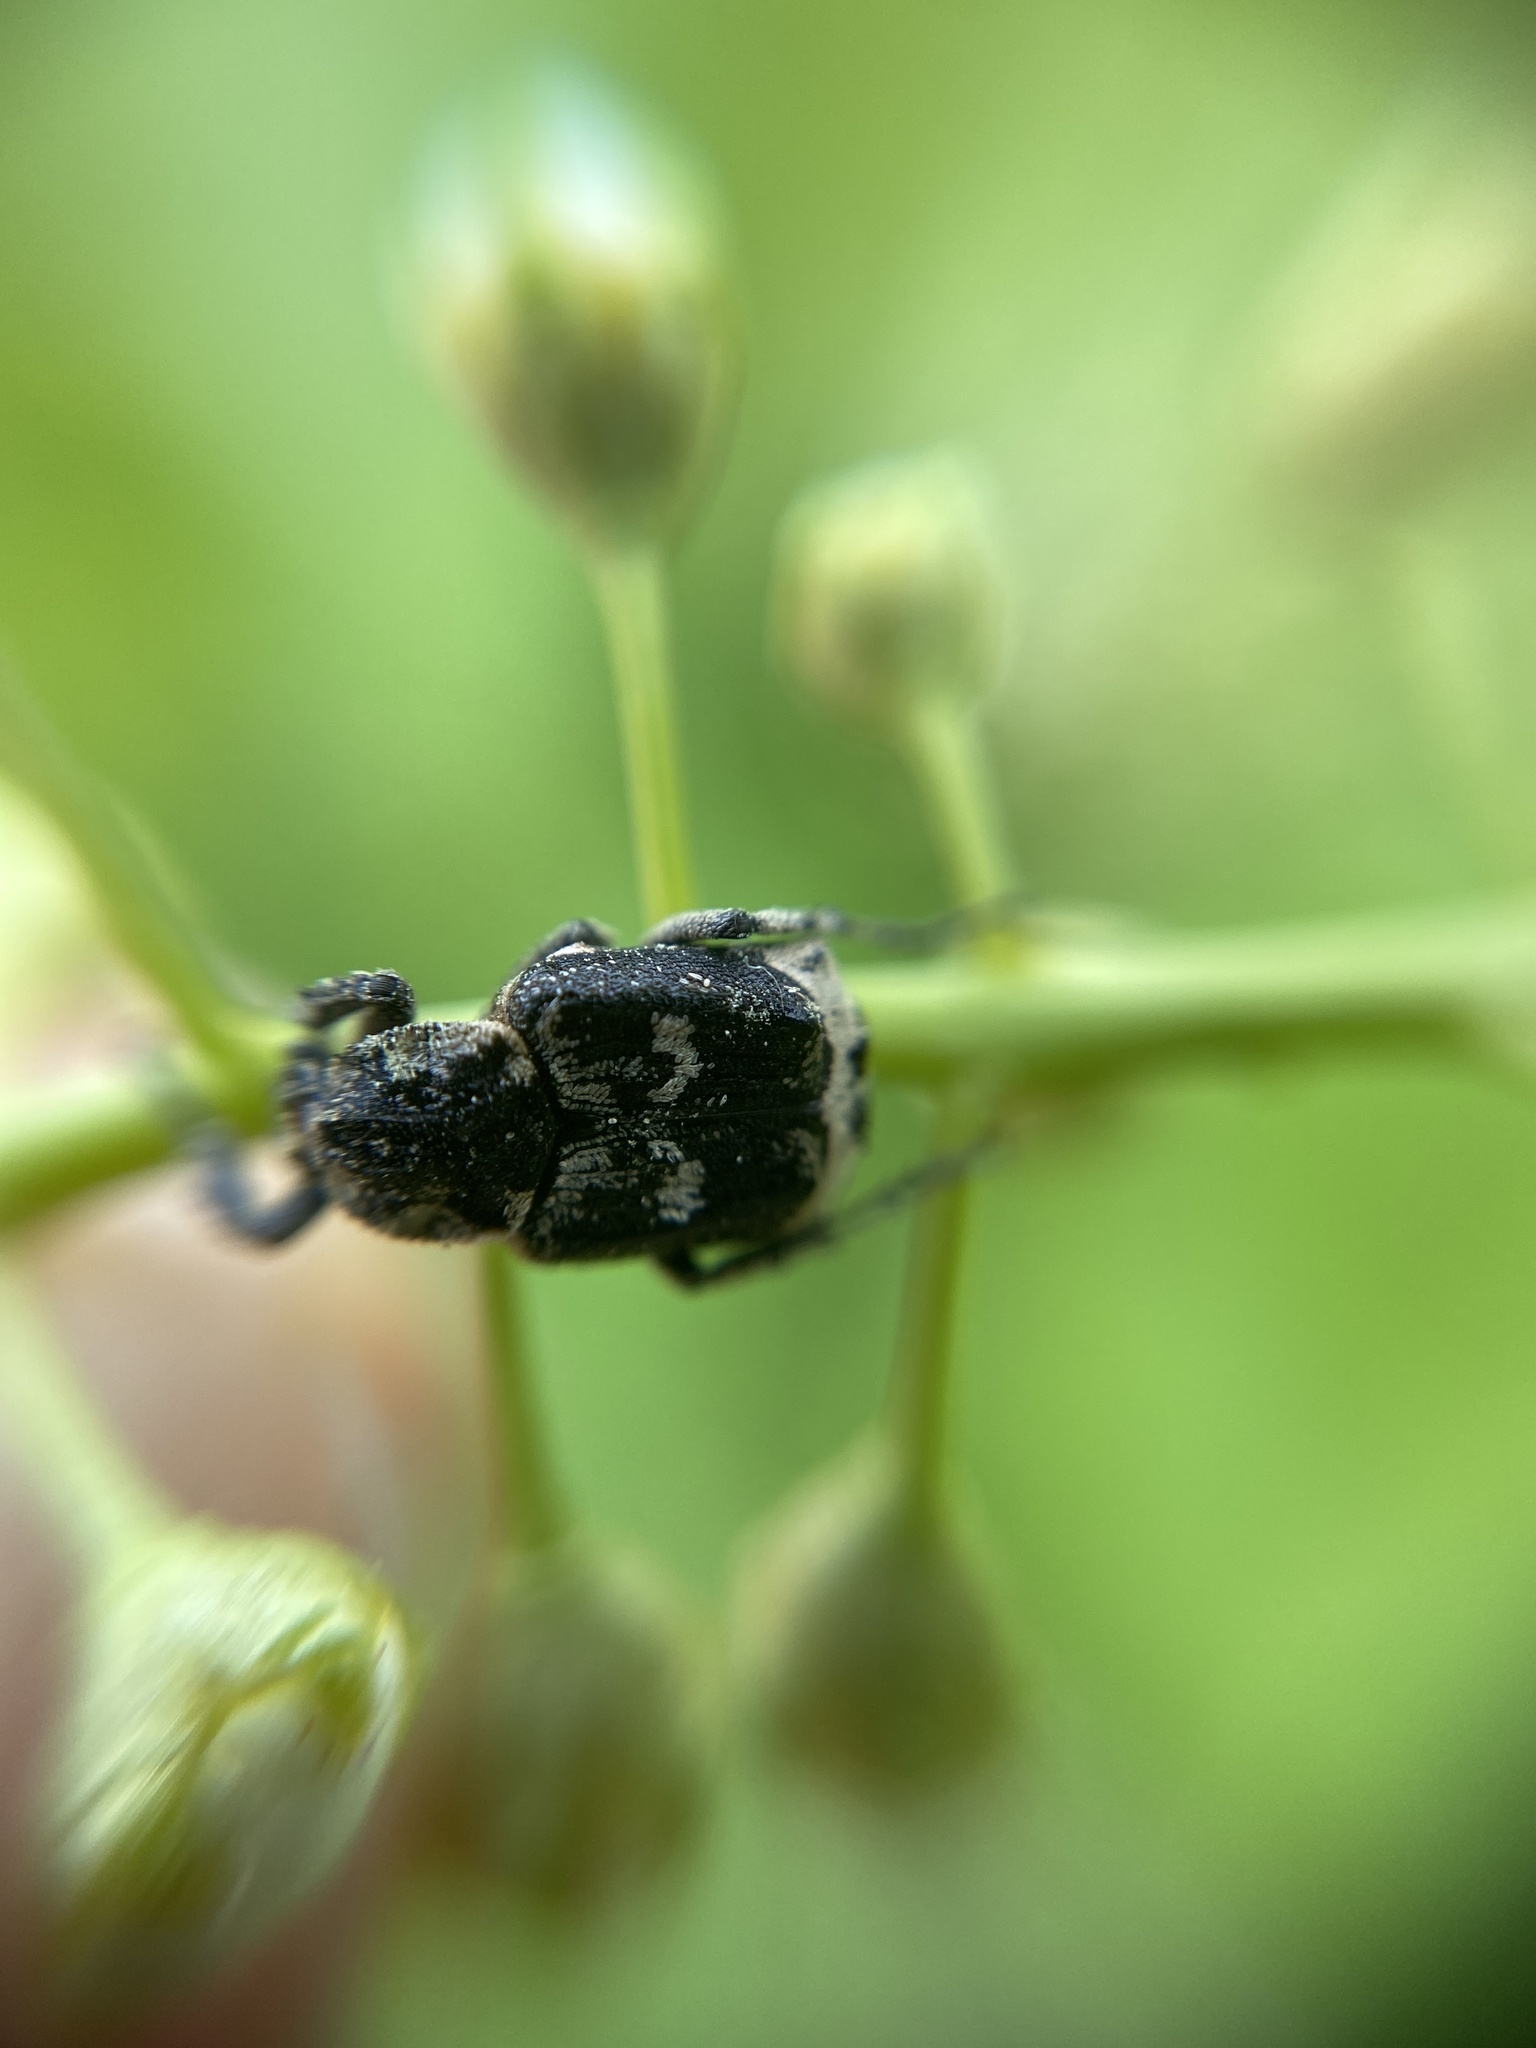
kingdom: Animalia
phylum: Arthropoda
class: Insecta
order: Coleoptera
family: Scarabaeidae
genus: Valgus
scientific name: Valgus hemipterus
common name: Bug flower chafer
